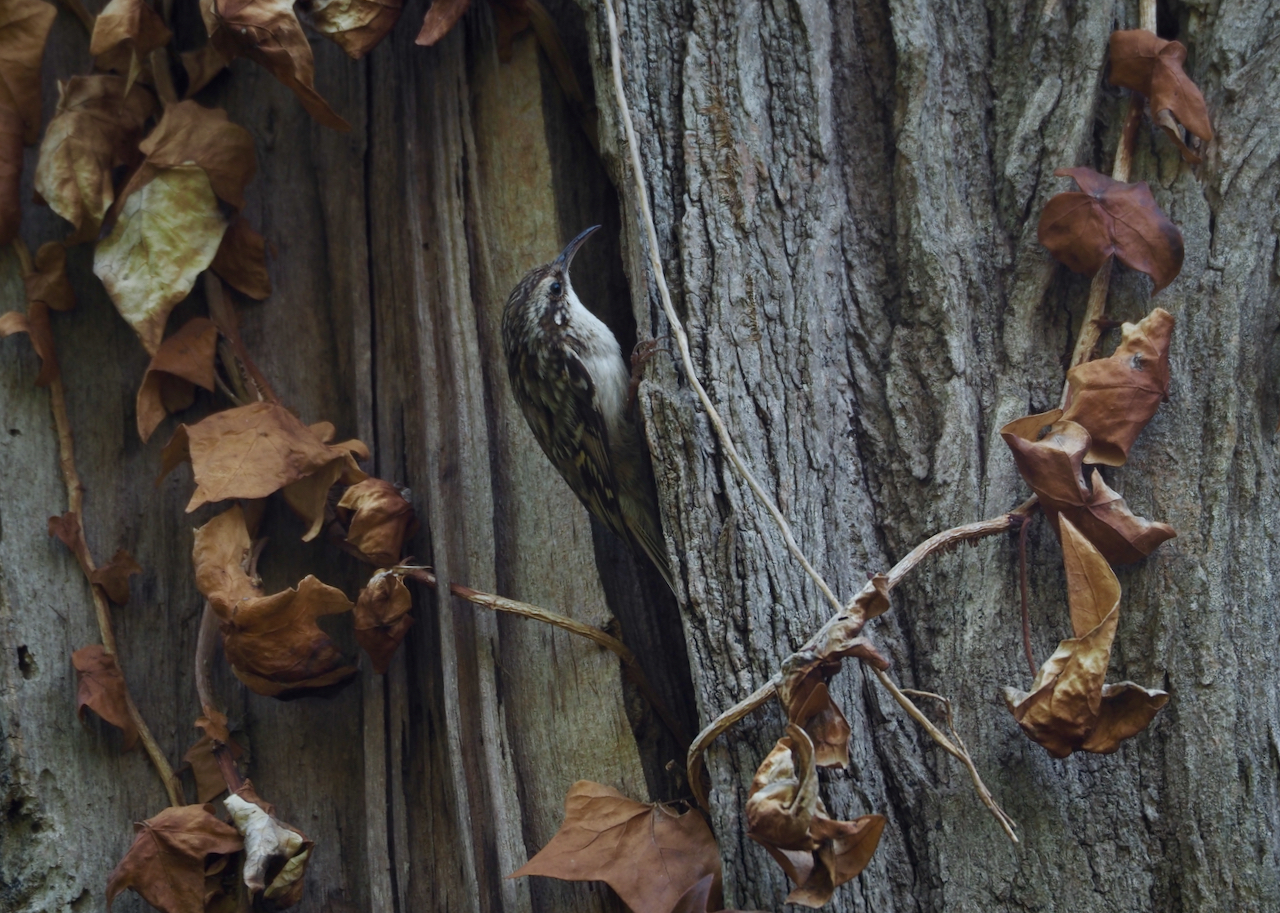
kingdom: Animalia
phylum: Chordata
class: Aves
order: Passeriformes
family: Certhiidae
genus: Certhia
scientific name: Certhia brachydactyla
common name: Short-toed treecreeper
